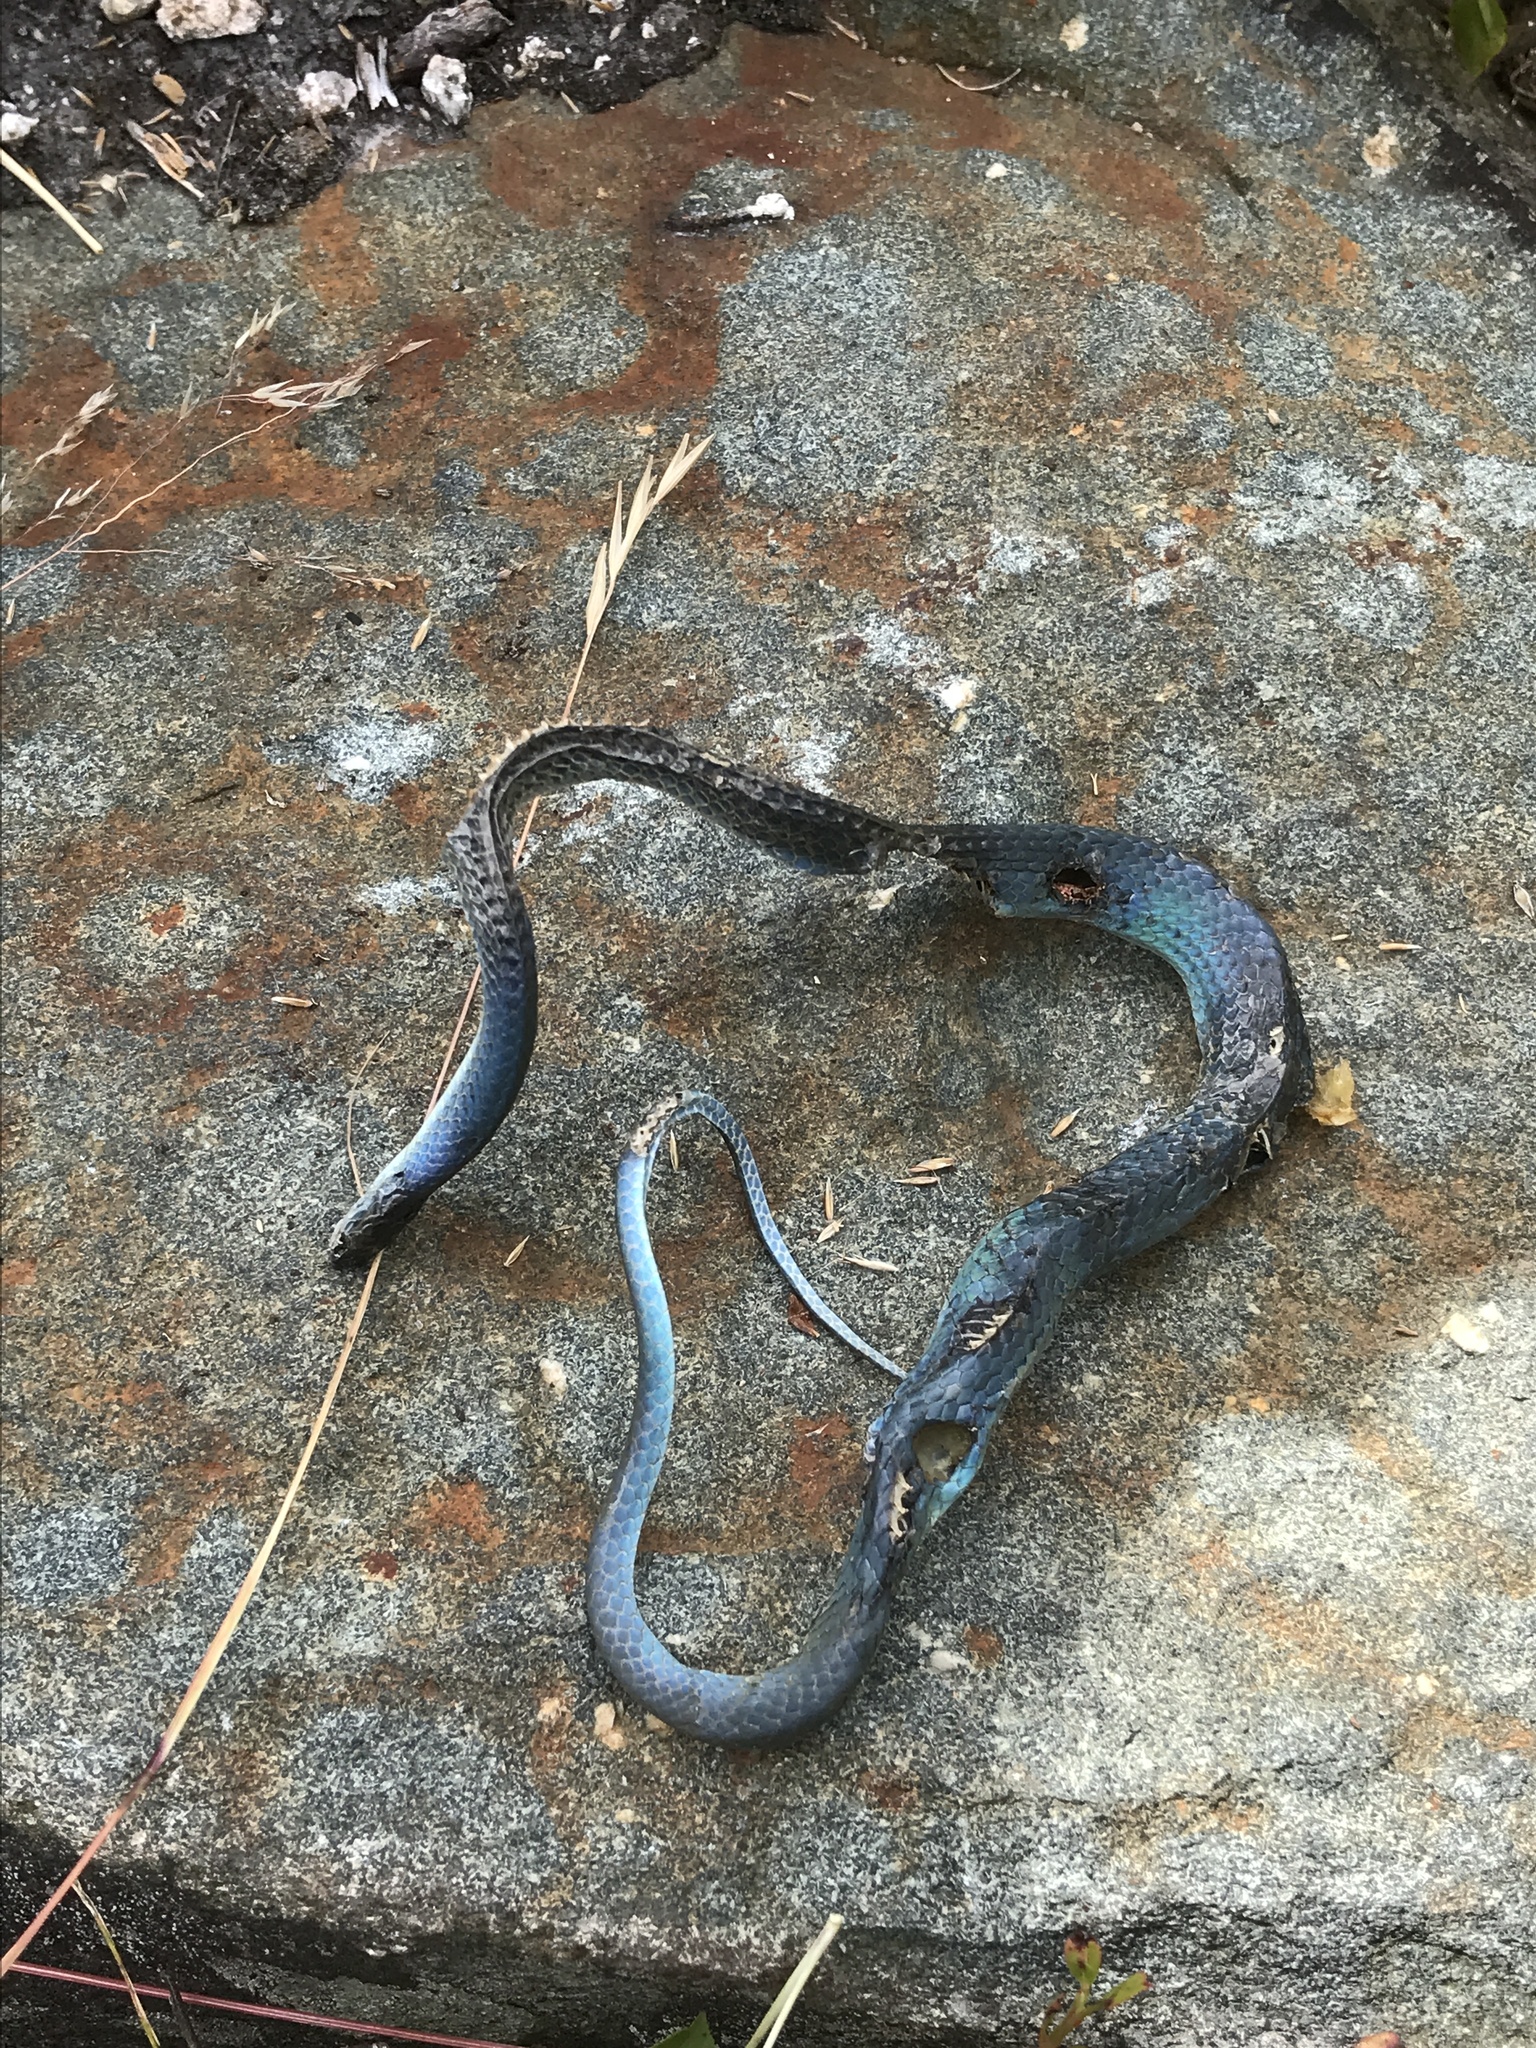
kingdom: Animalia
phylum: Chordata
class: Squamata
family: Colubridae
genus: Opheodrys
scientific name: Opheodrys vernalis
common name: Smooth green snake
